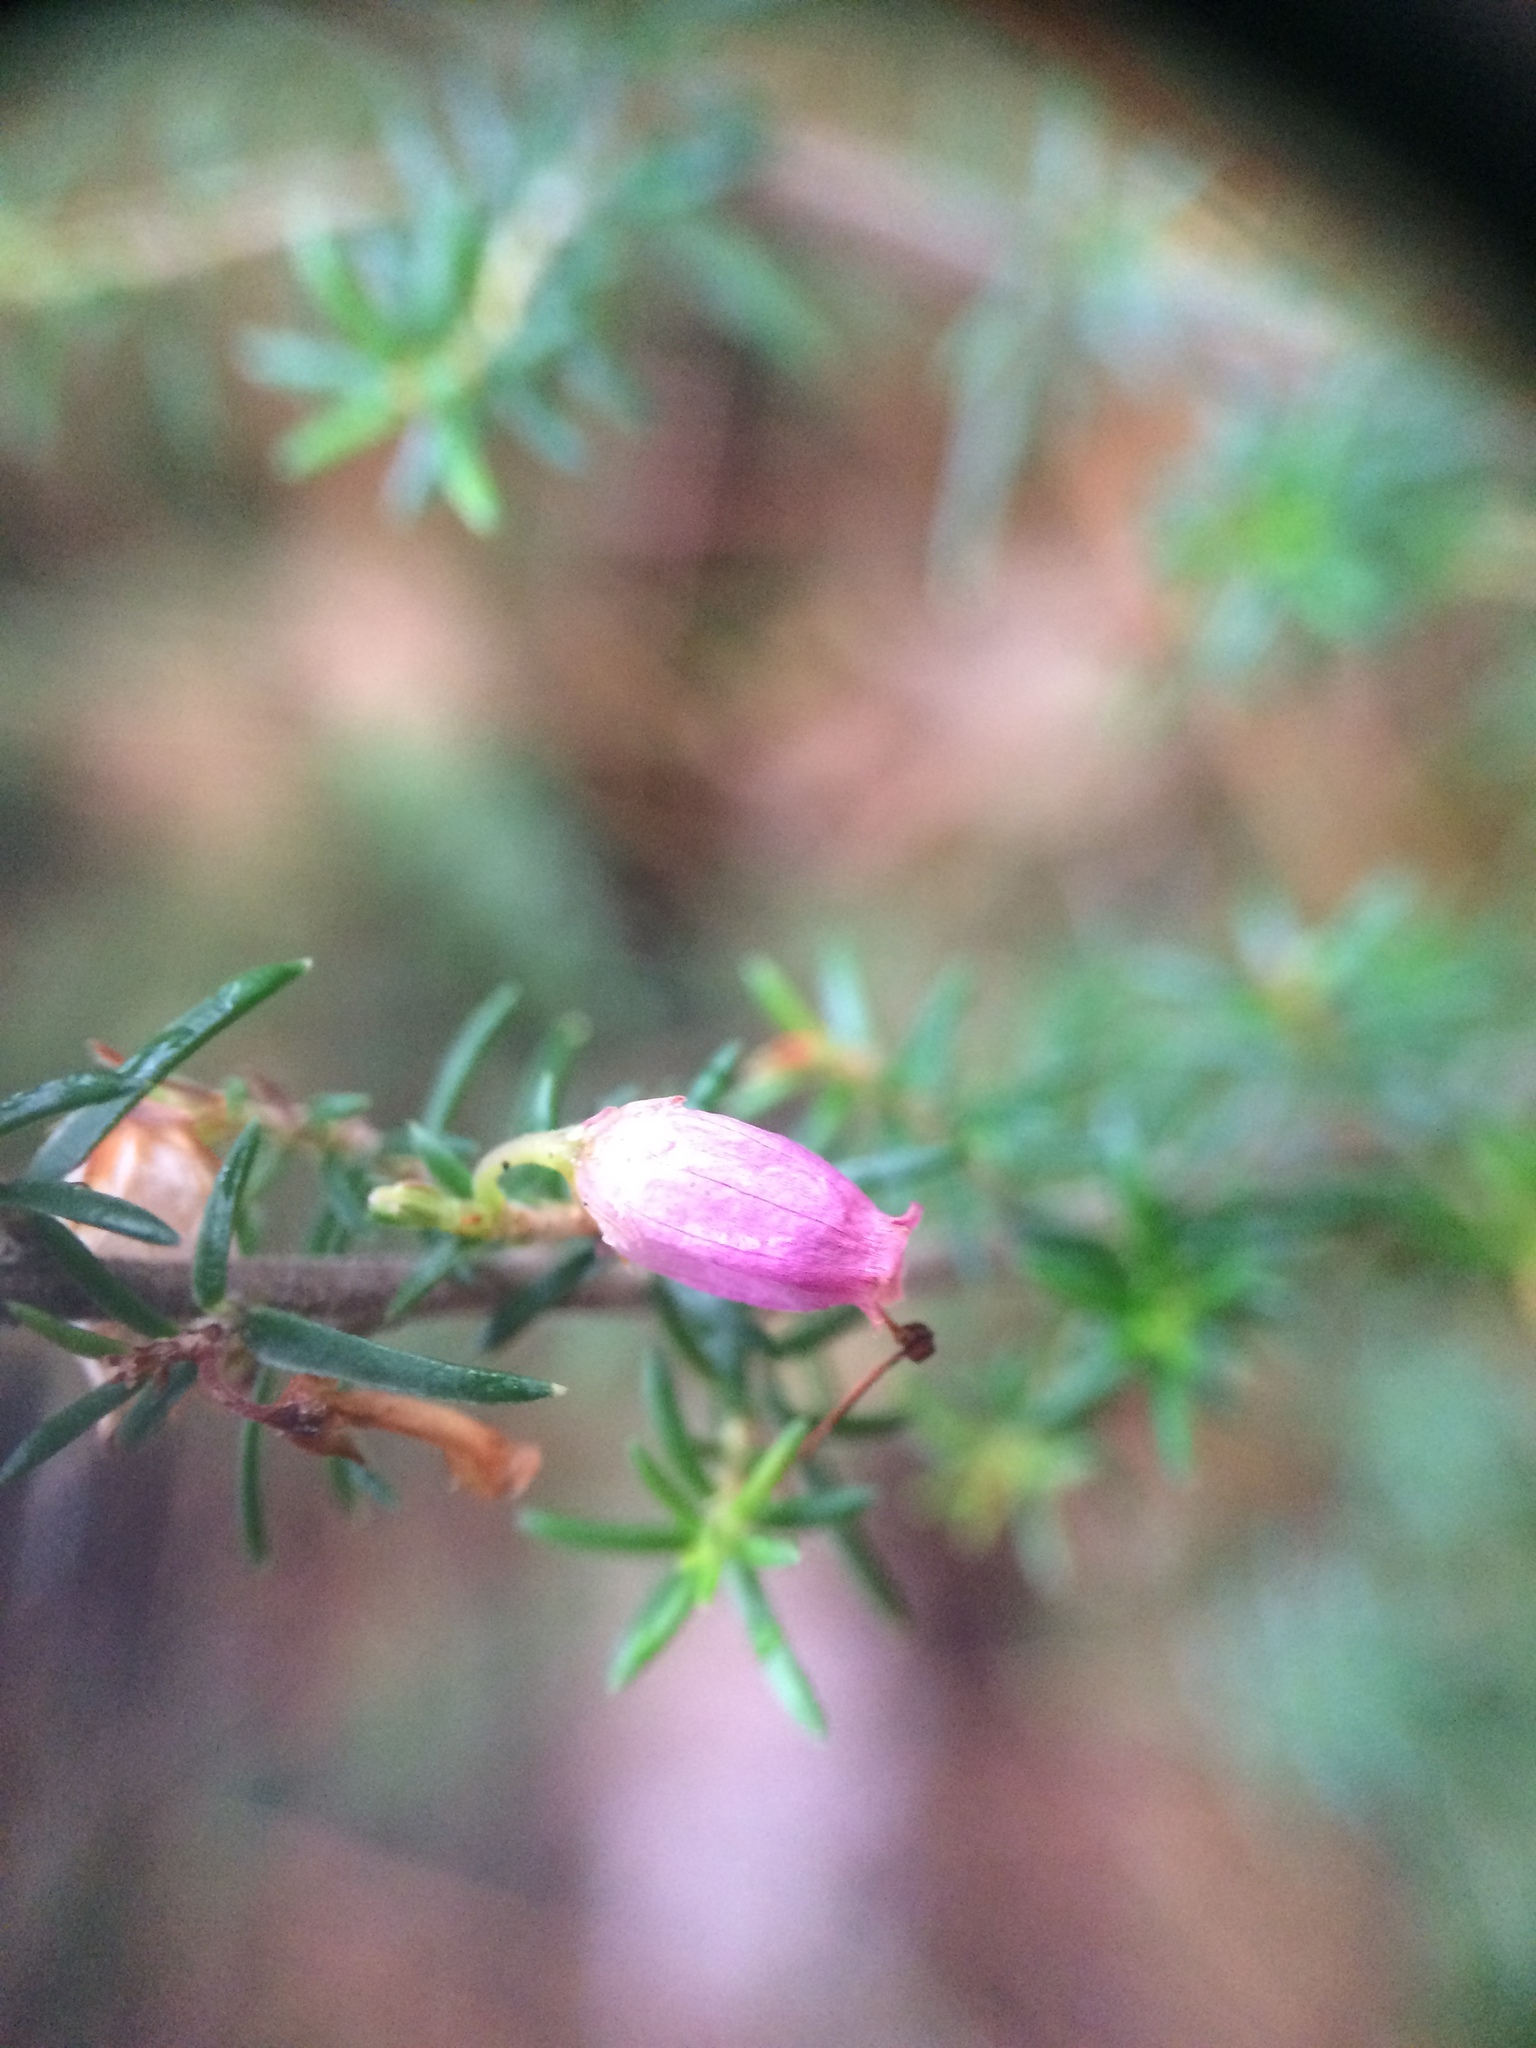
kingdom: Plantae
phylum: Tracheophyta
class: Magnoliopsida
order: Ericales
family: Ericaceae
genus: Erica
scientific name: Erica cinerea
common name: Bell heather
